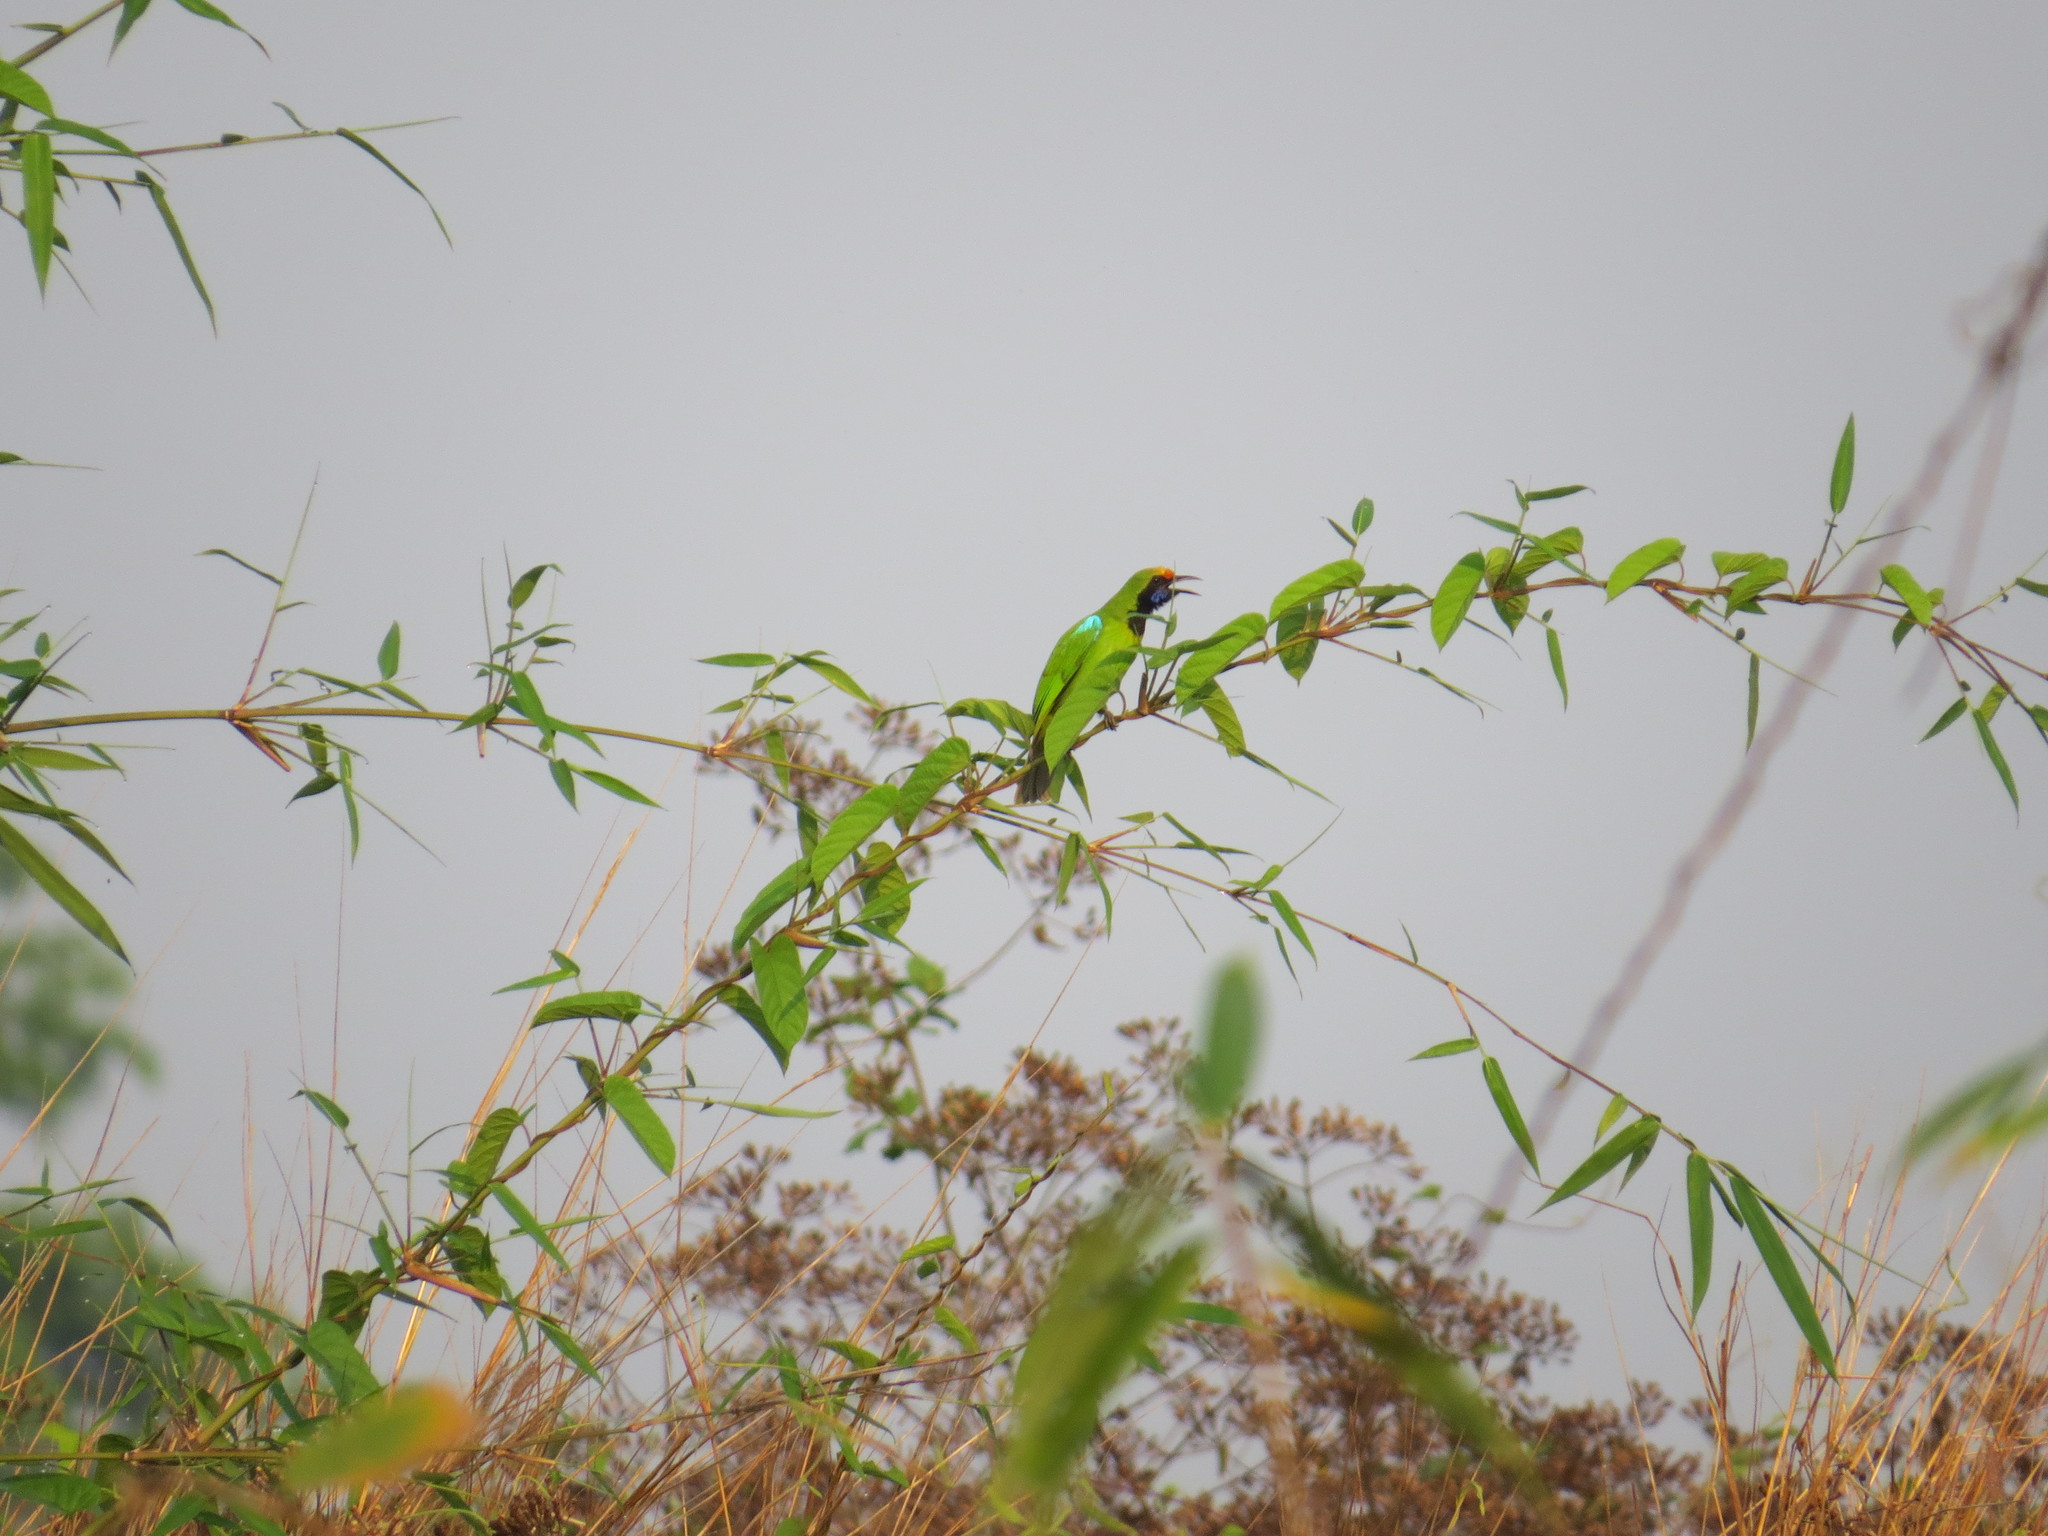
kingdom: Animalia
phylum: Chordata
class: Aves
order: Passeriformes
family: Chloropseidae
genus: Chloropsis
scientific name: Chloropsis aurifrons
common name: Golden-fronted leafbird
